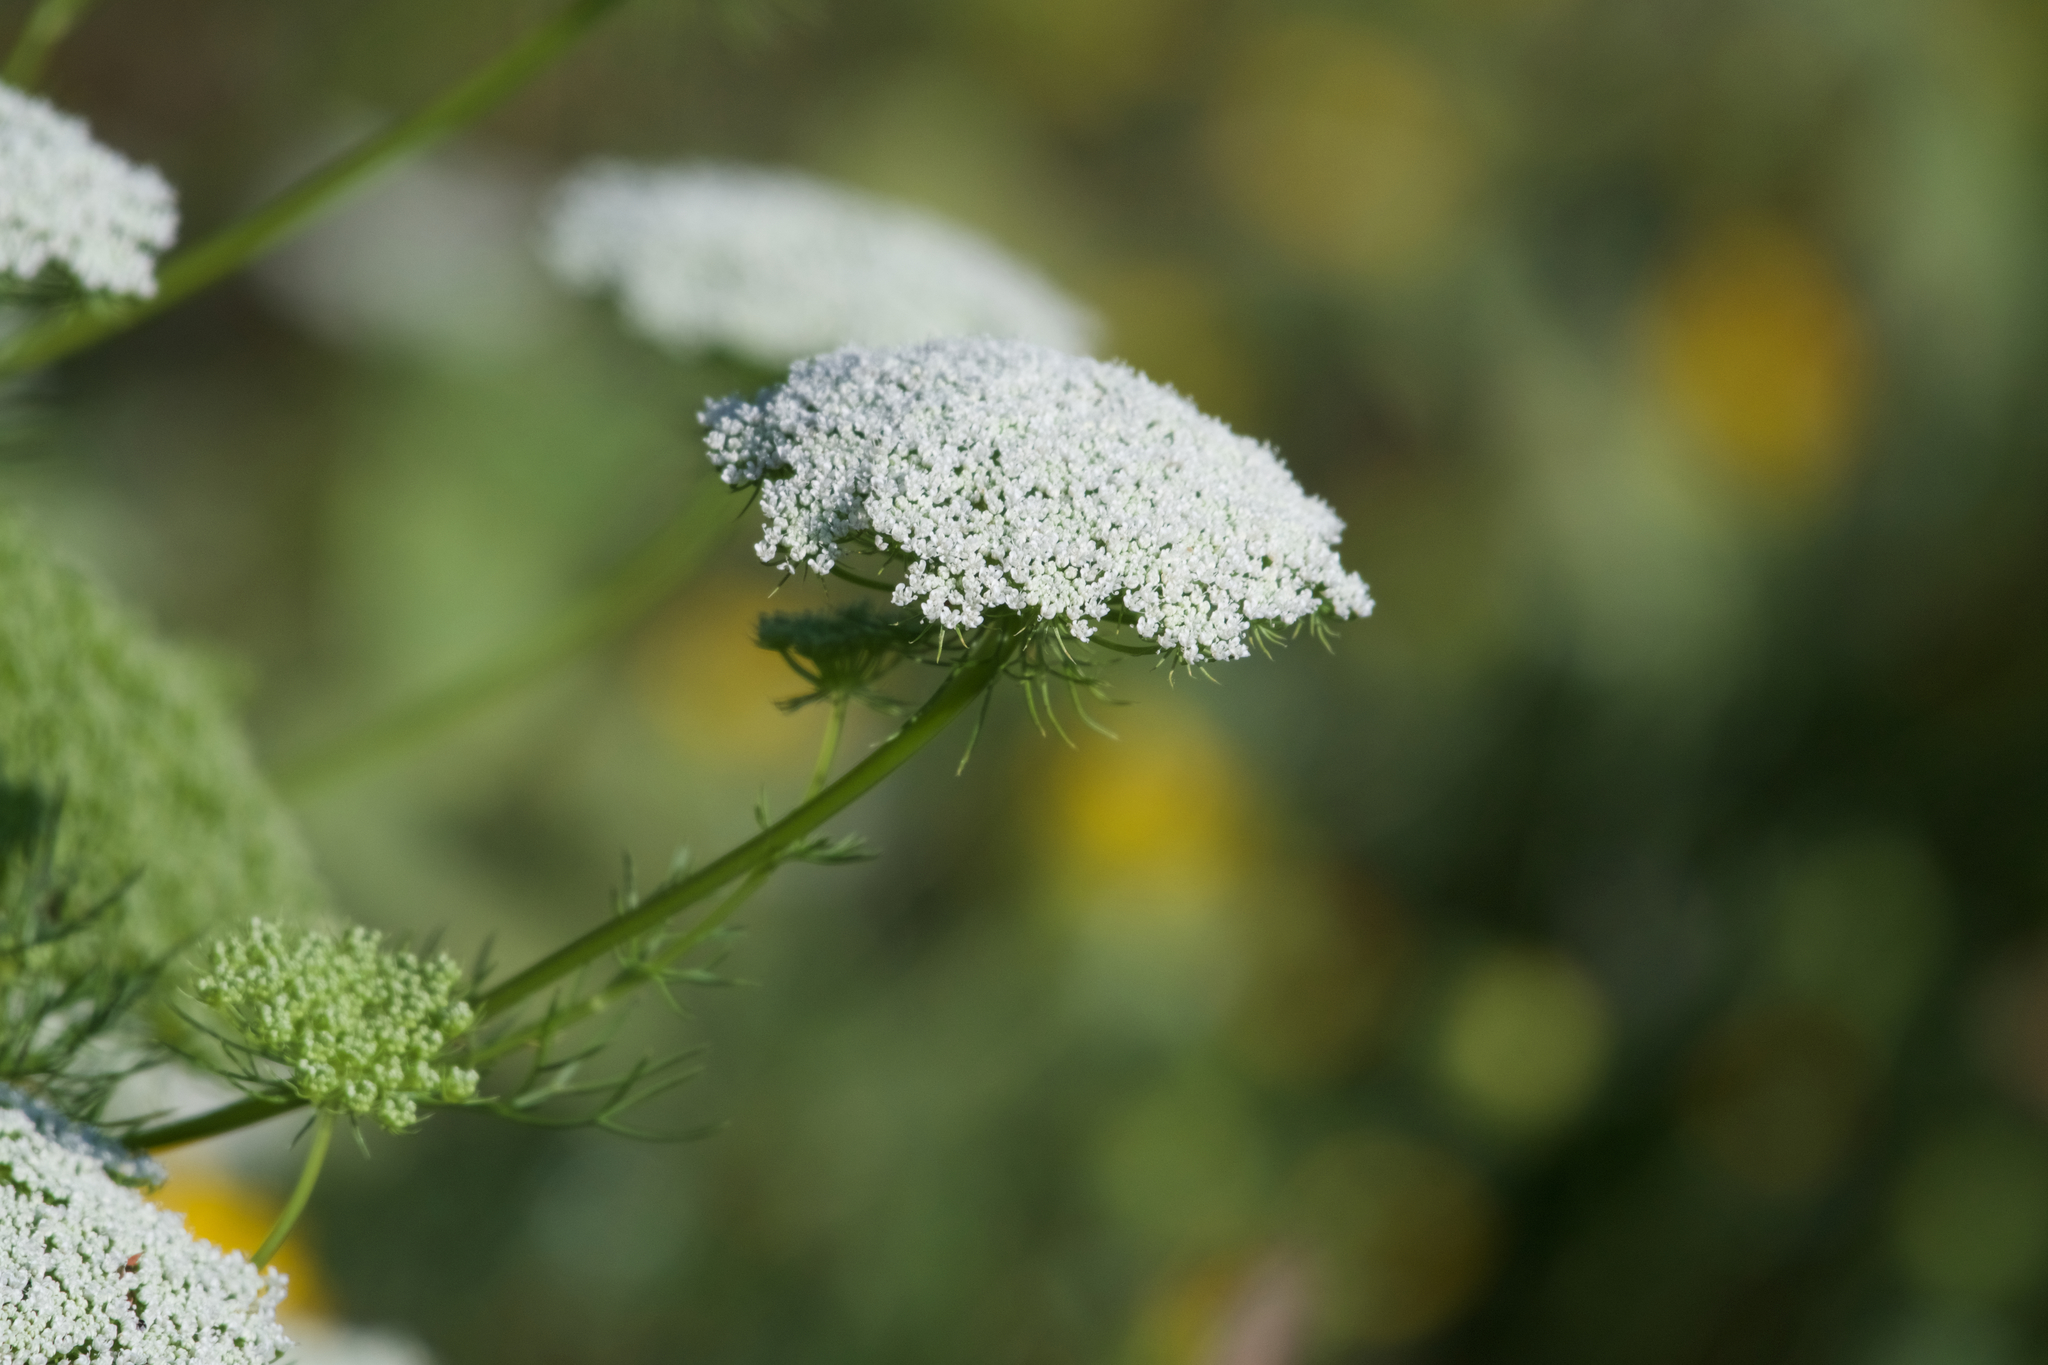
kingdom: Plantae
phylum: Tracheophyta
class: Magnoliopsida
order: Apiales
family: Apiaceae
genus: Visnaga
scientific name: Visnaga daucoides
